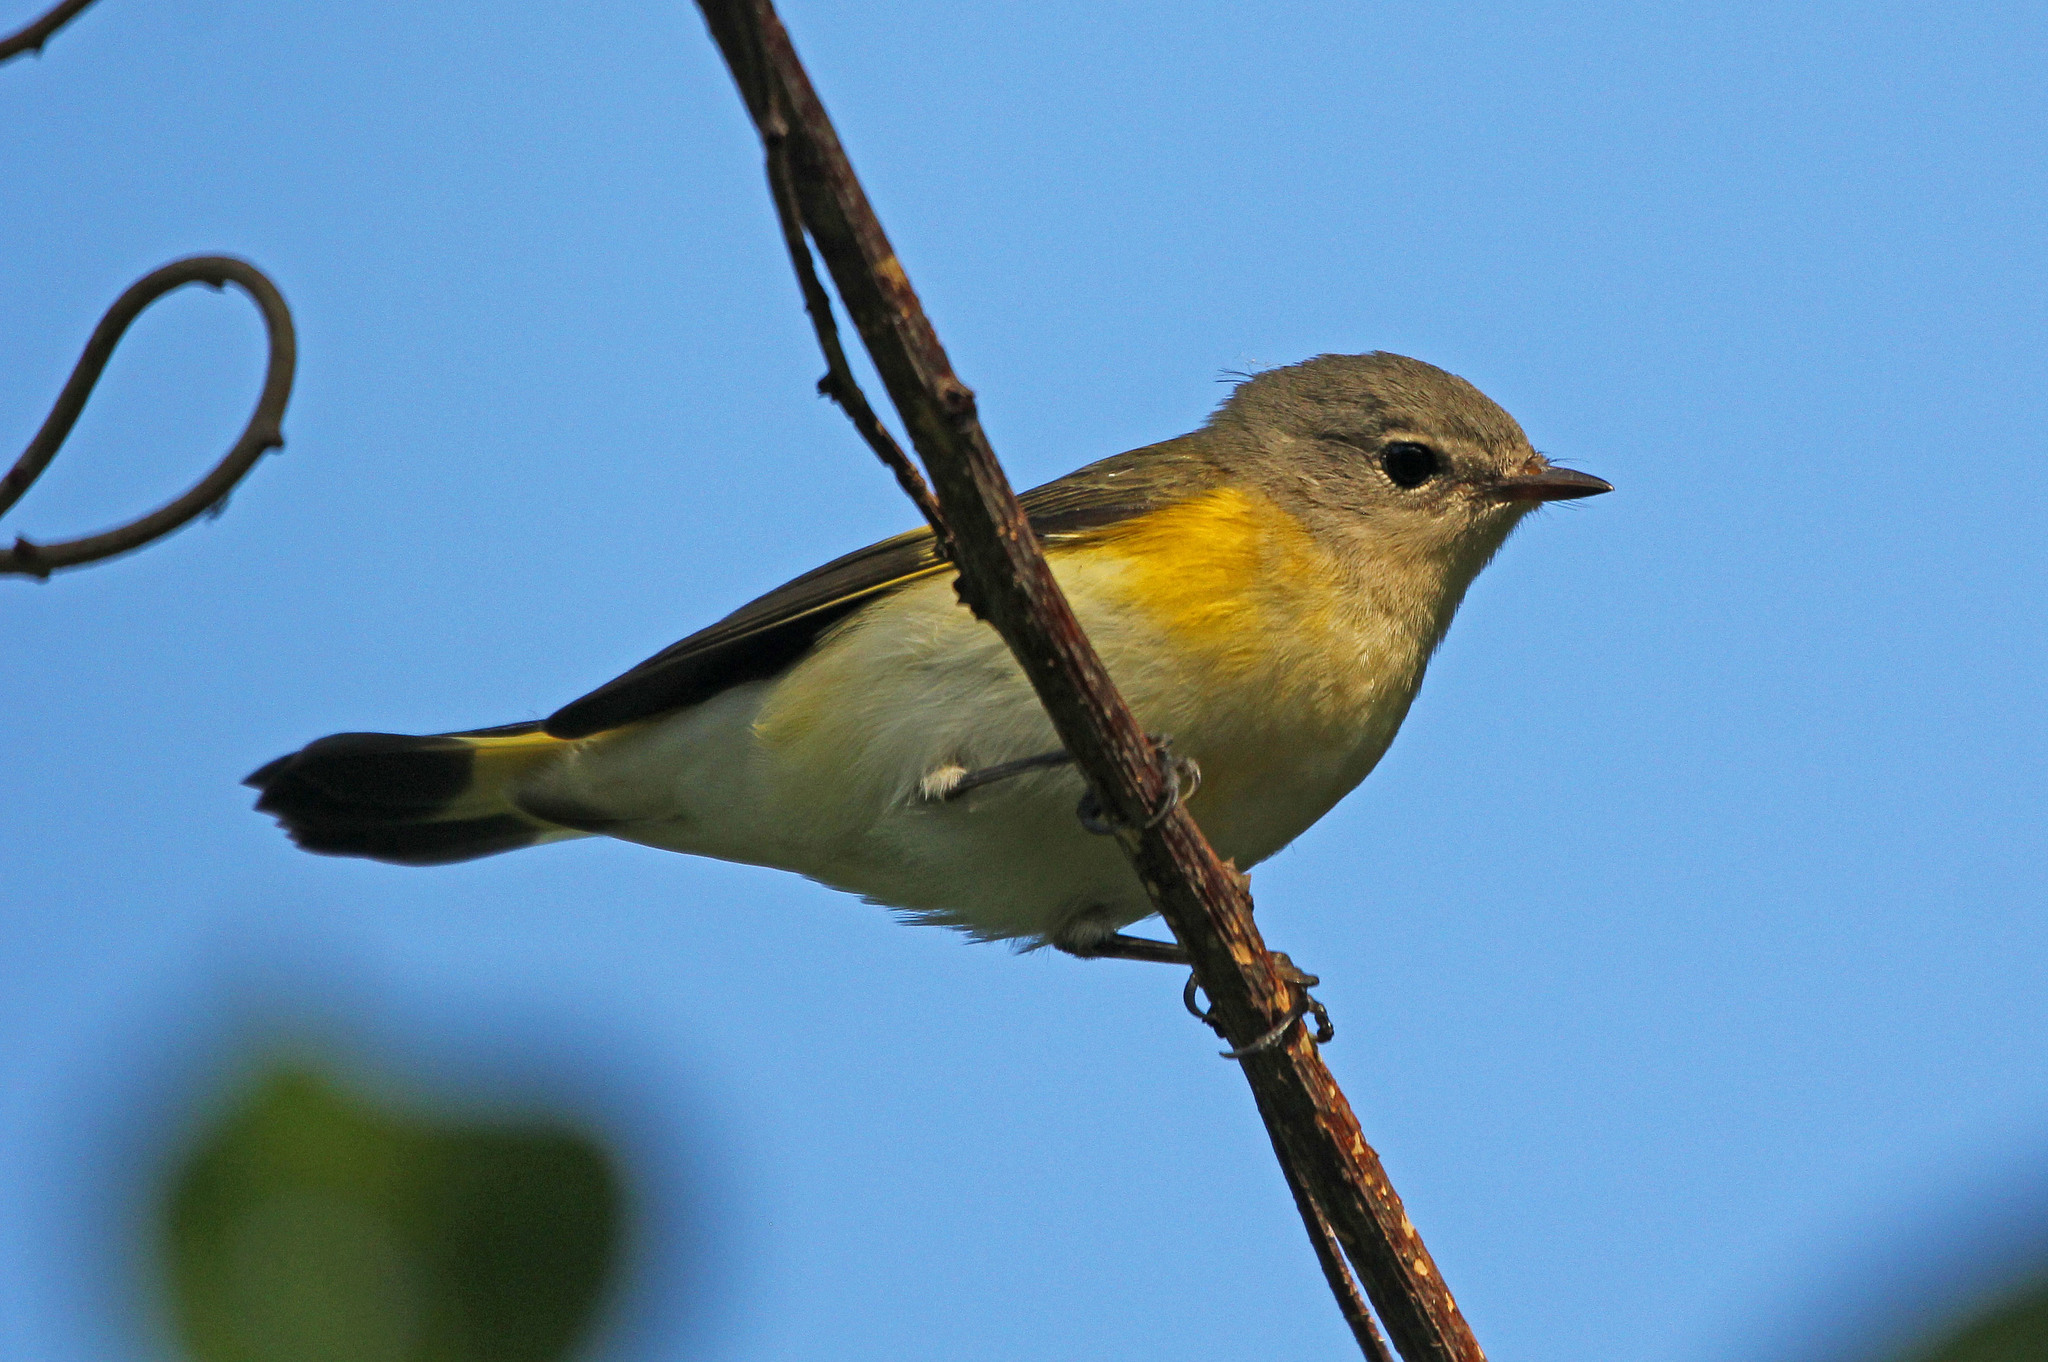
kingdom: Animalia
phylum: Chordata
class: Aves
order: Passeriformes
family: Parulidae
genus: Setophaga
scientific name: Setophaga ruticilla
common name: American redstart
